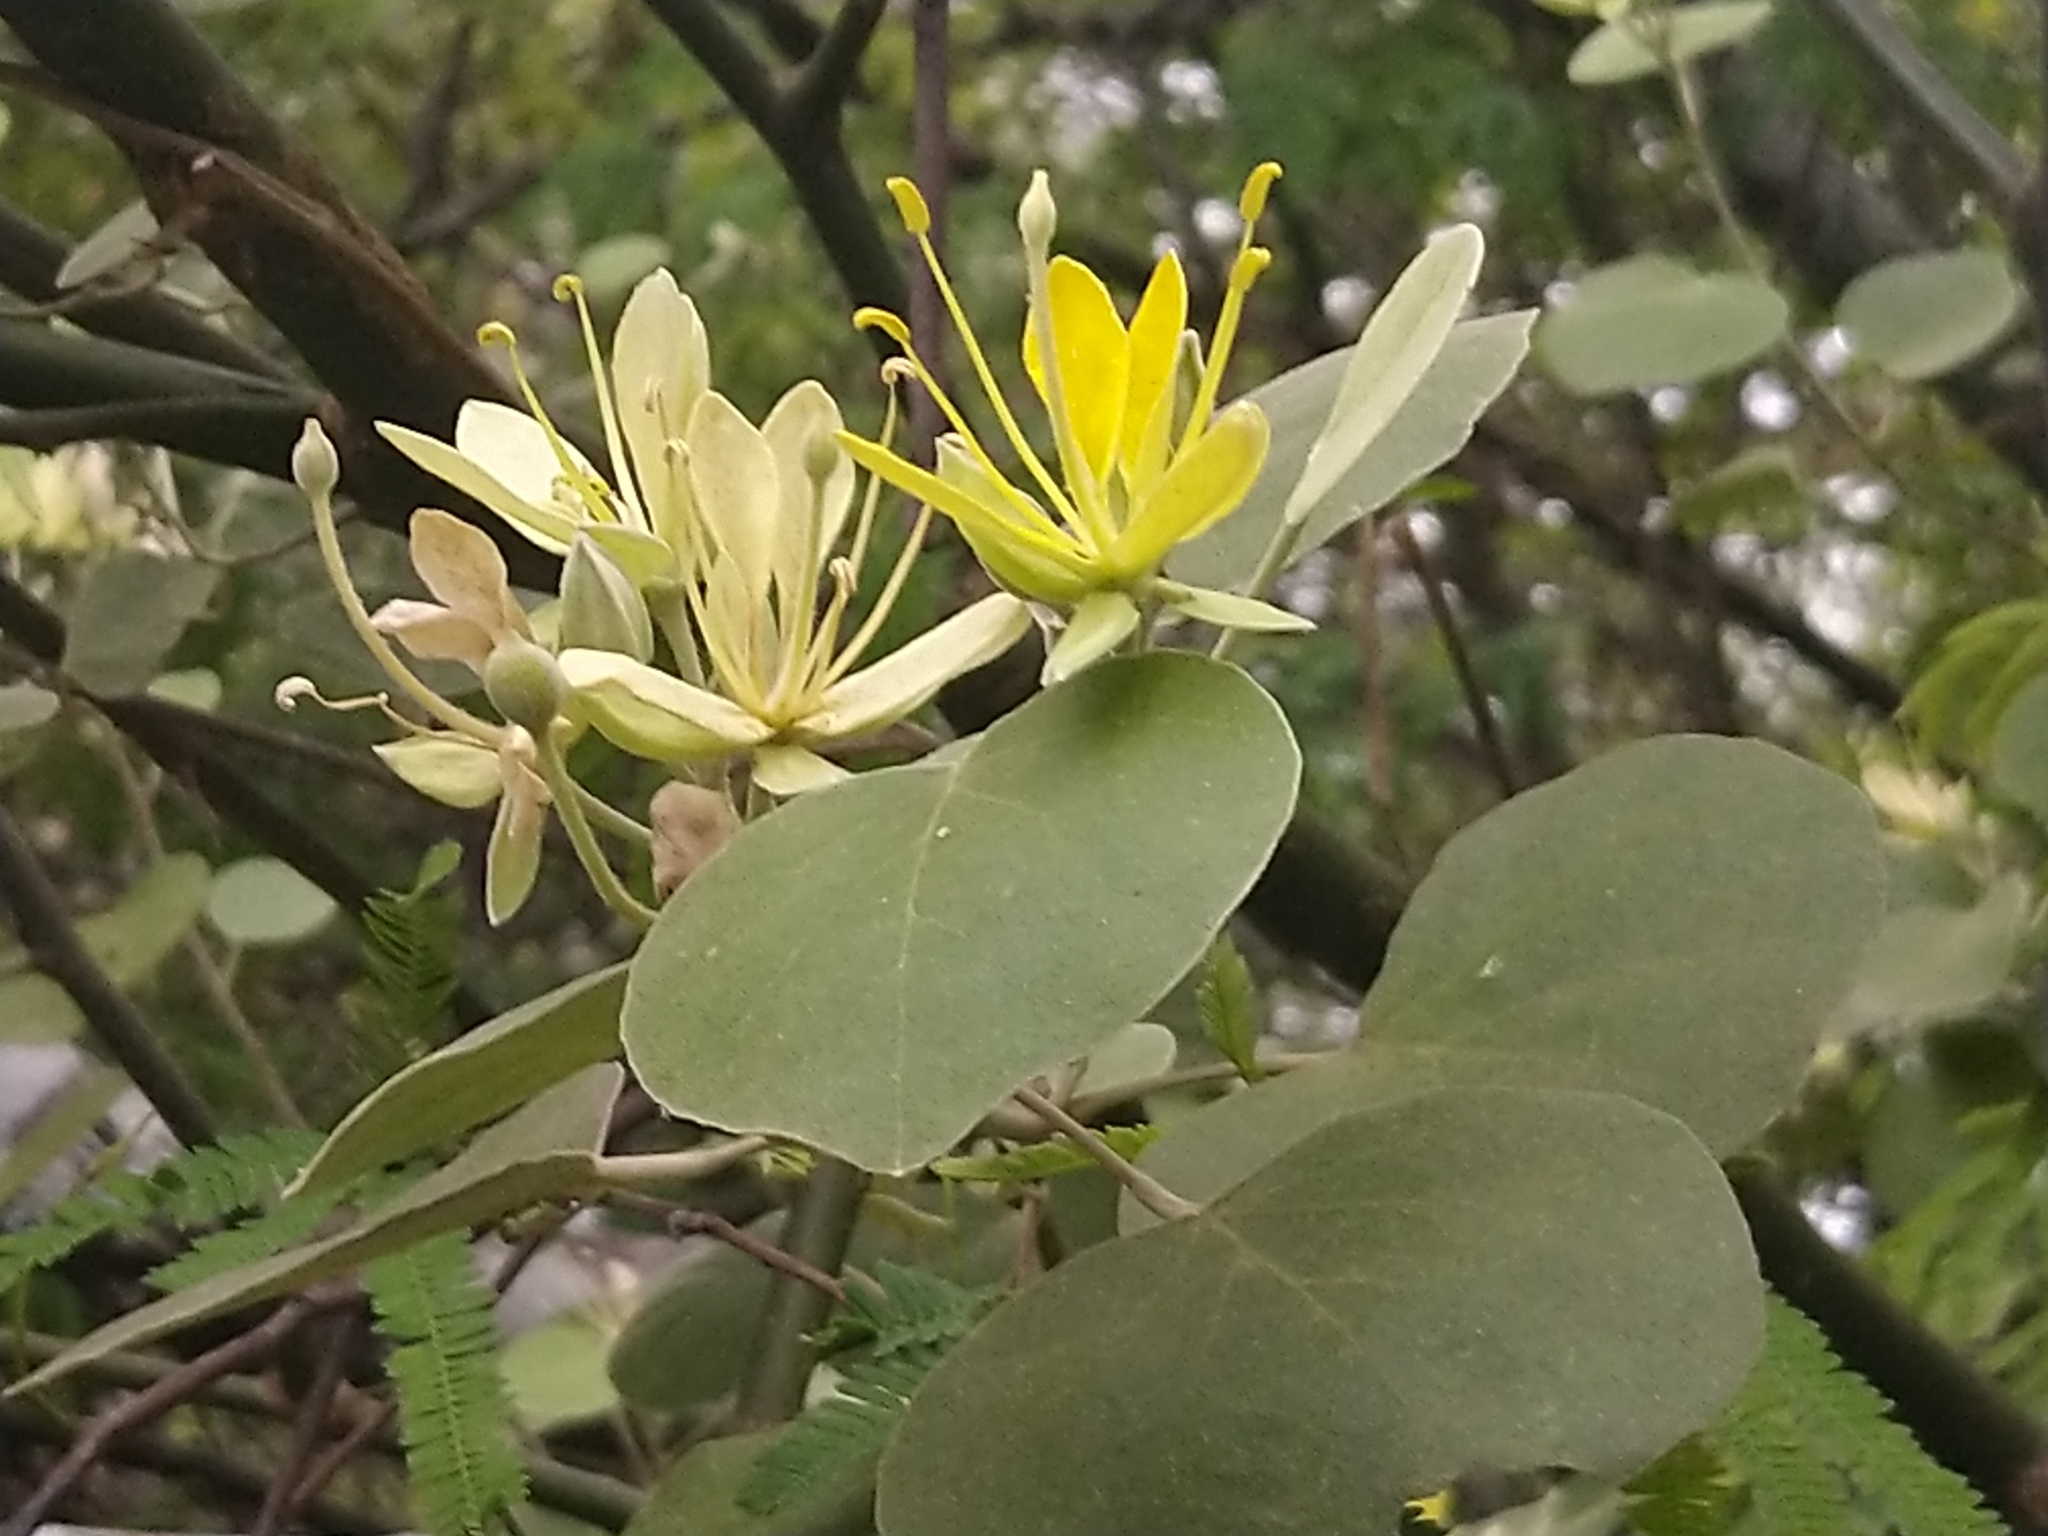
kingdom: Plantae
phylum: Tracheophyta
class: Magnoliopsida
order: Brassicales
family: Capparaceae
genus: Capparicordis
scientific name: Capparicordis tweedieana
